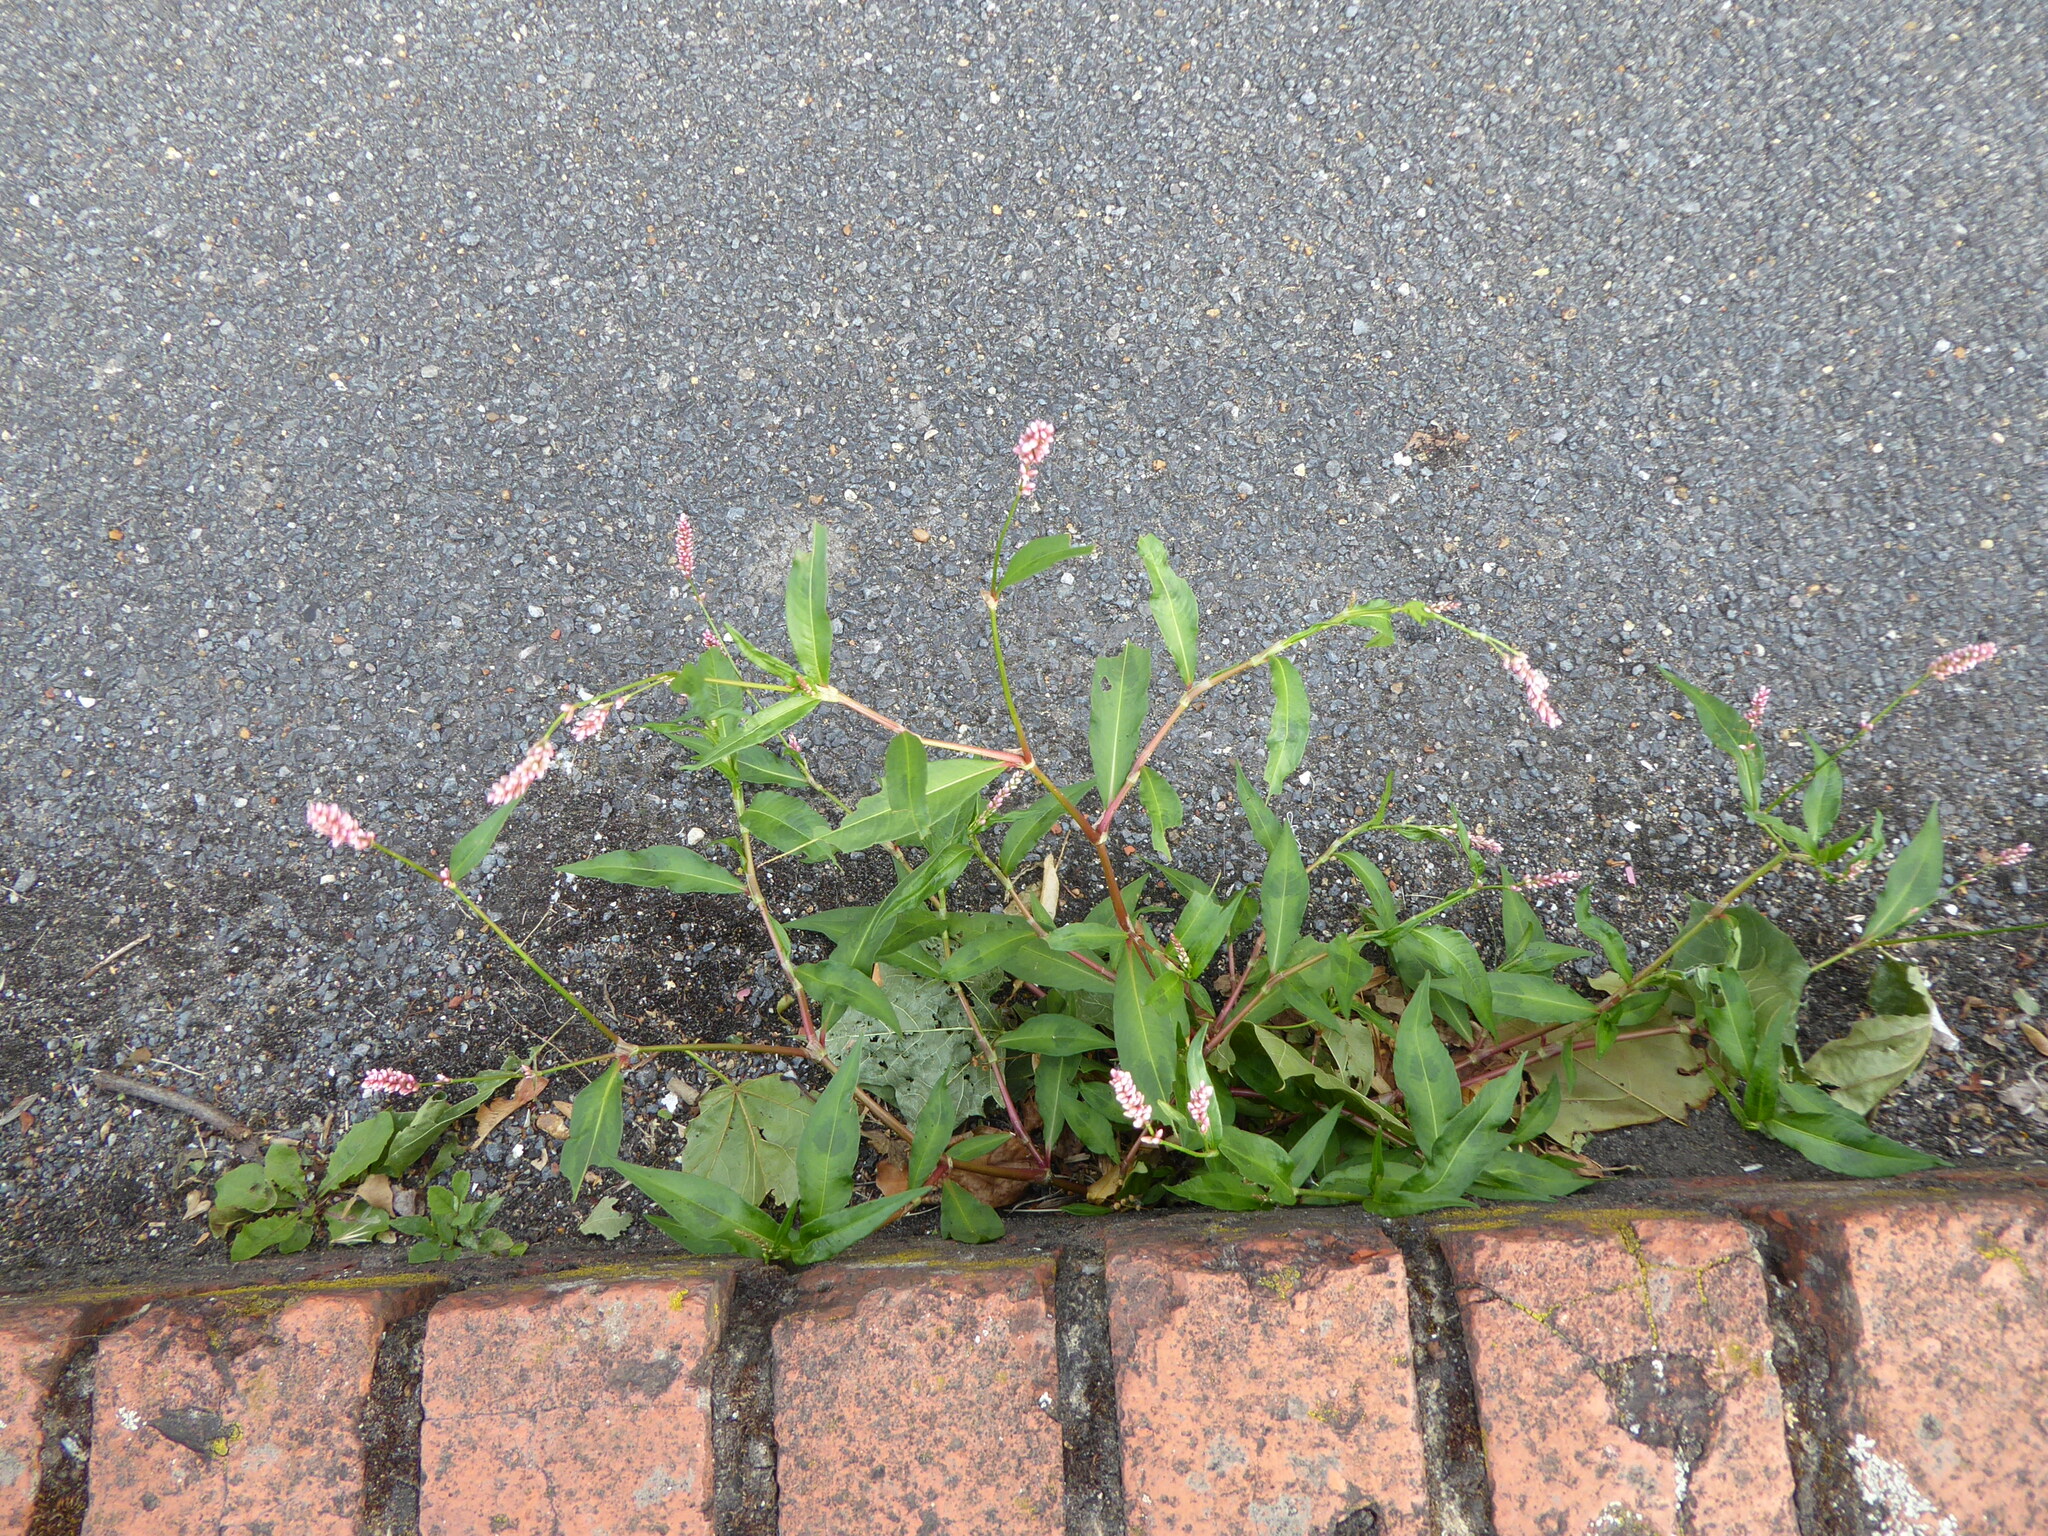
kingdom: Plantae
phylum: Tracheophyta
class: Magnoliopsida
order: Caryophyllales
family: Polygonaceae
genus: Persicaria
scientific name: Persicaria maculosa
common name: Redshank
